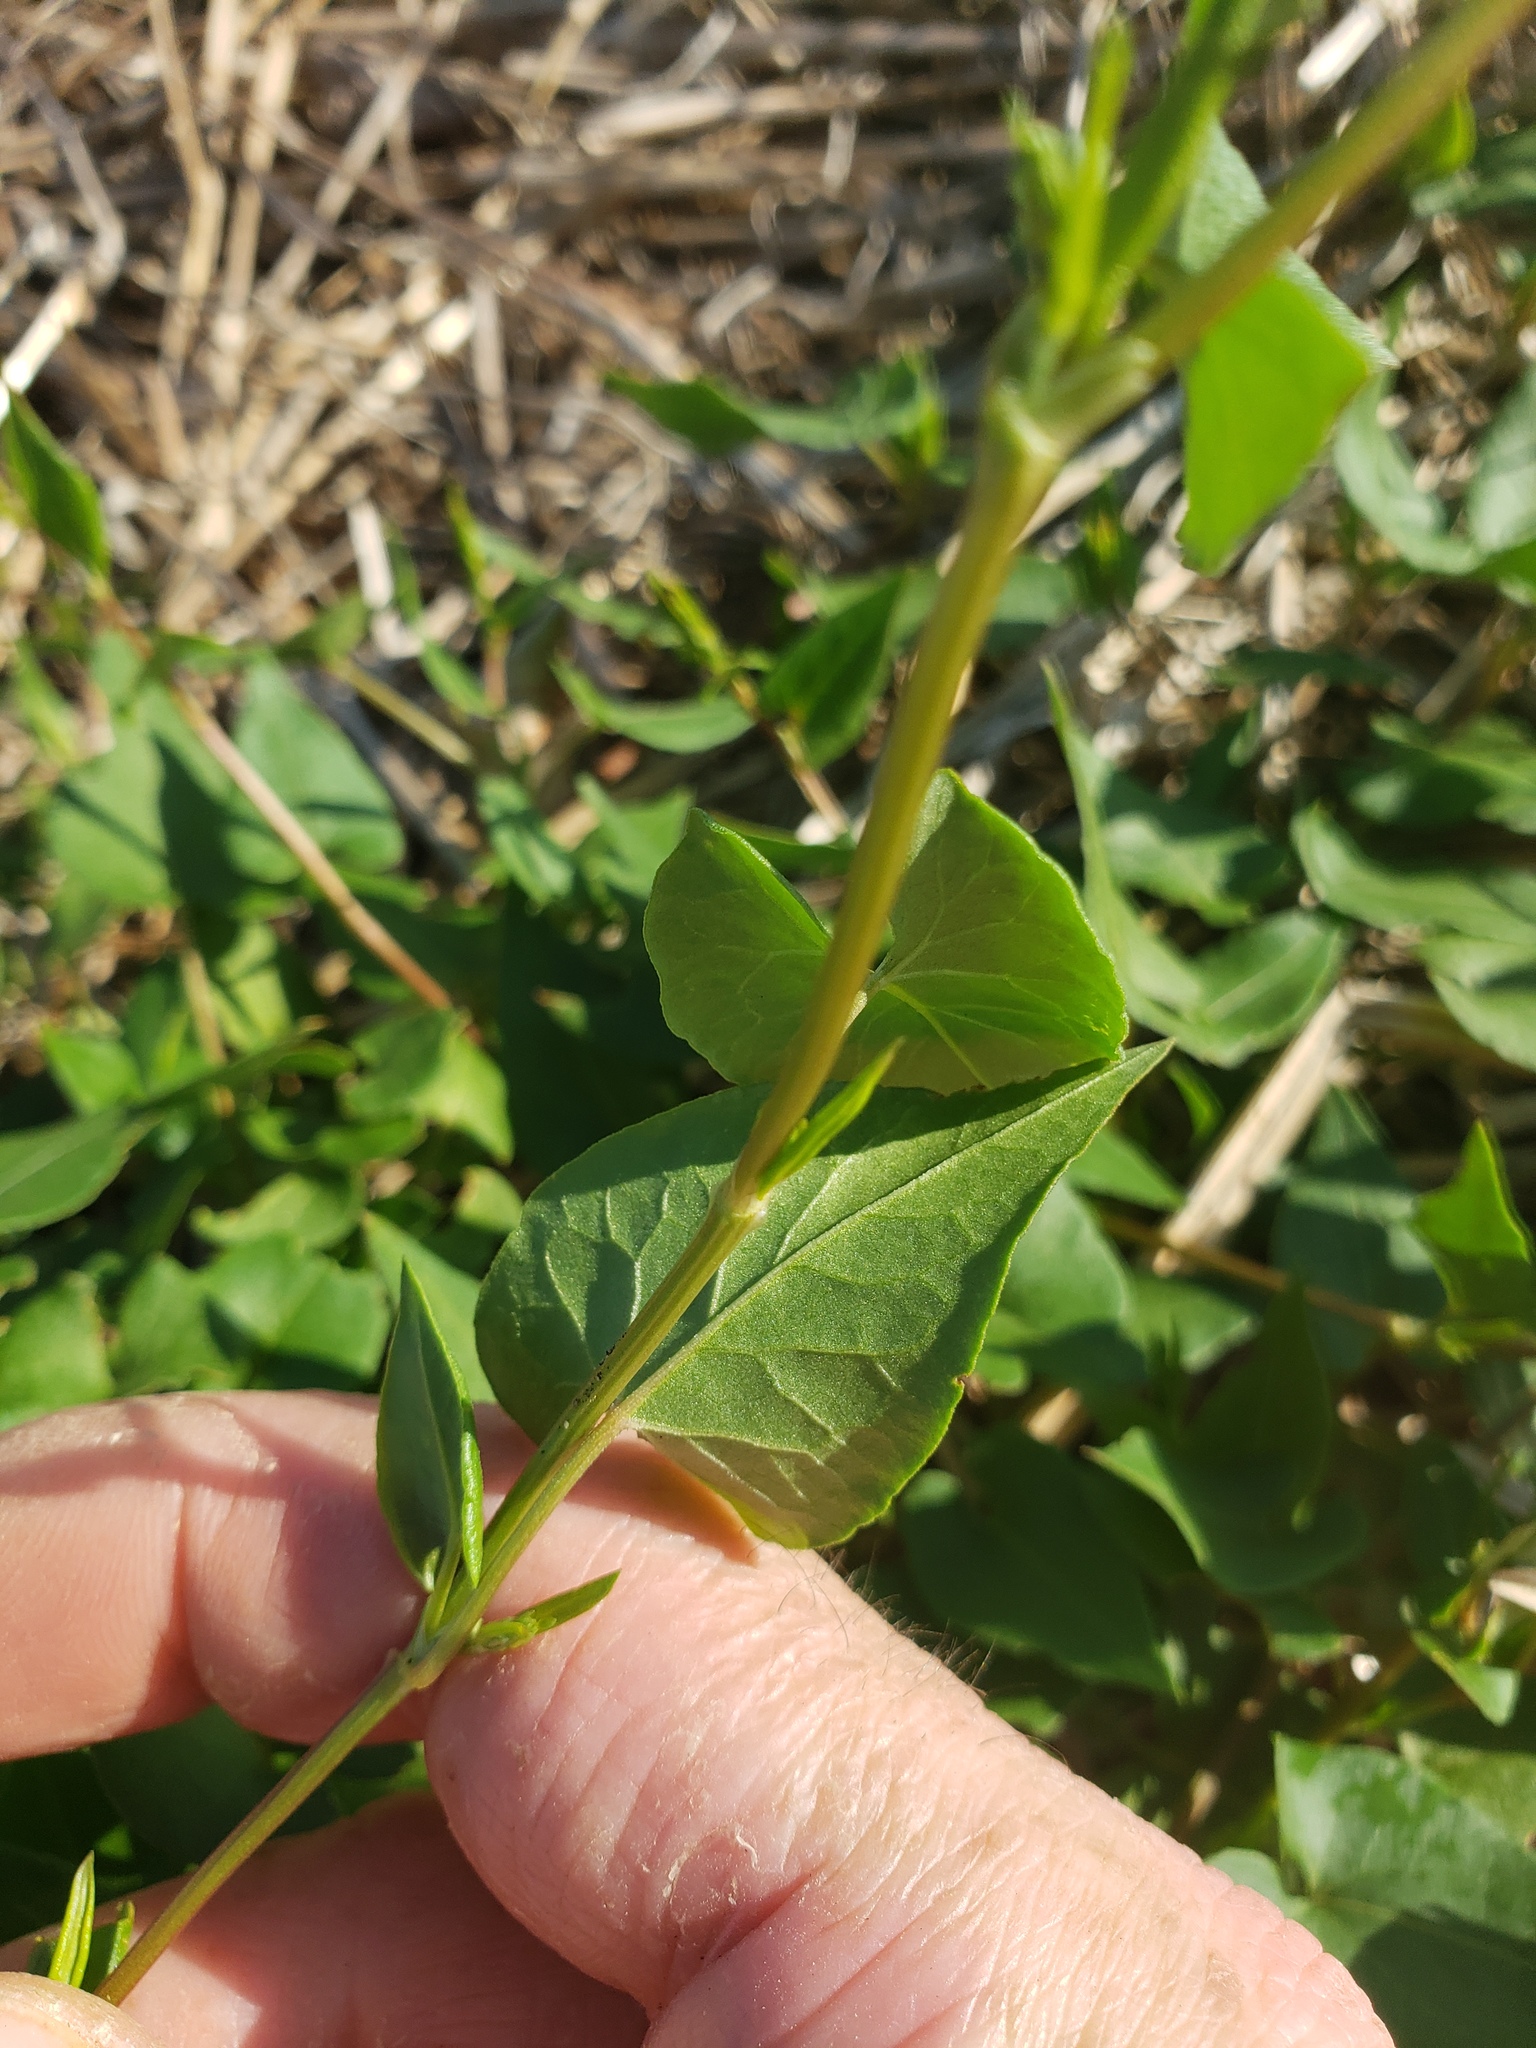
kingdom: Plantae
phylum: Tracheophyta
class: Magnoliopsida
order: Caryophyllales
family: Polygonaceae
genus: Fallopia
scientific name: Fallopia convolvulus
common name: Black bindweed
